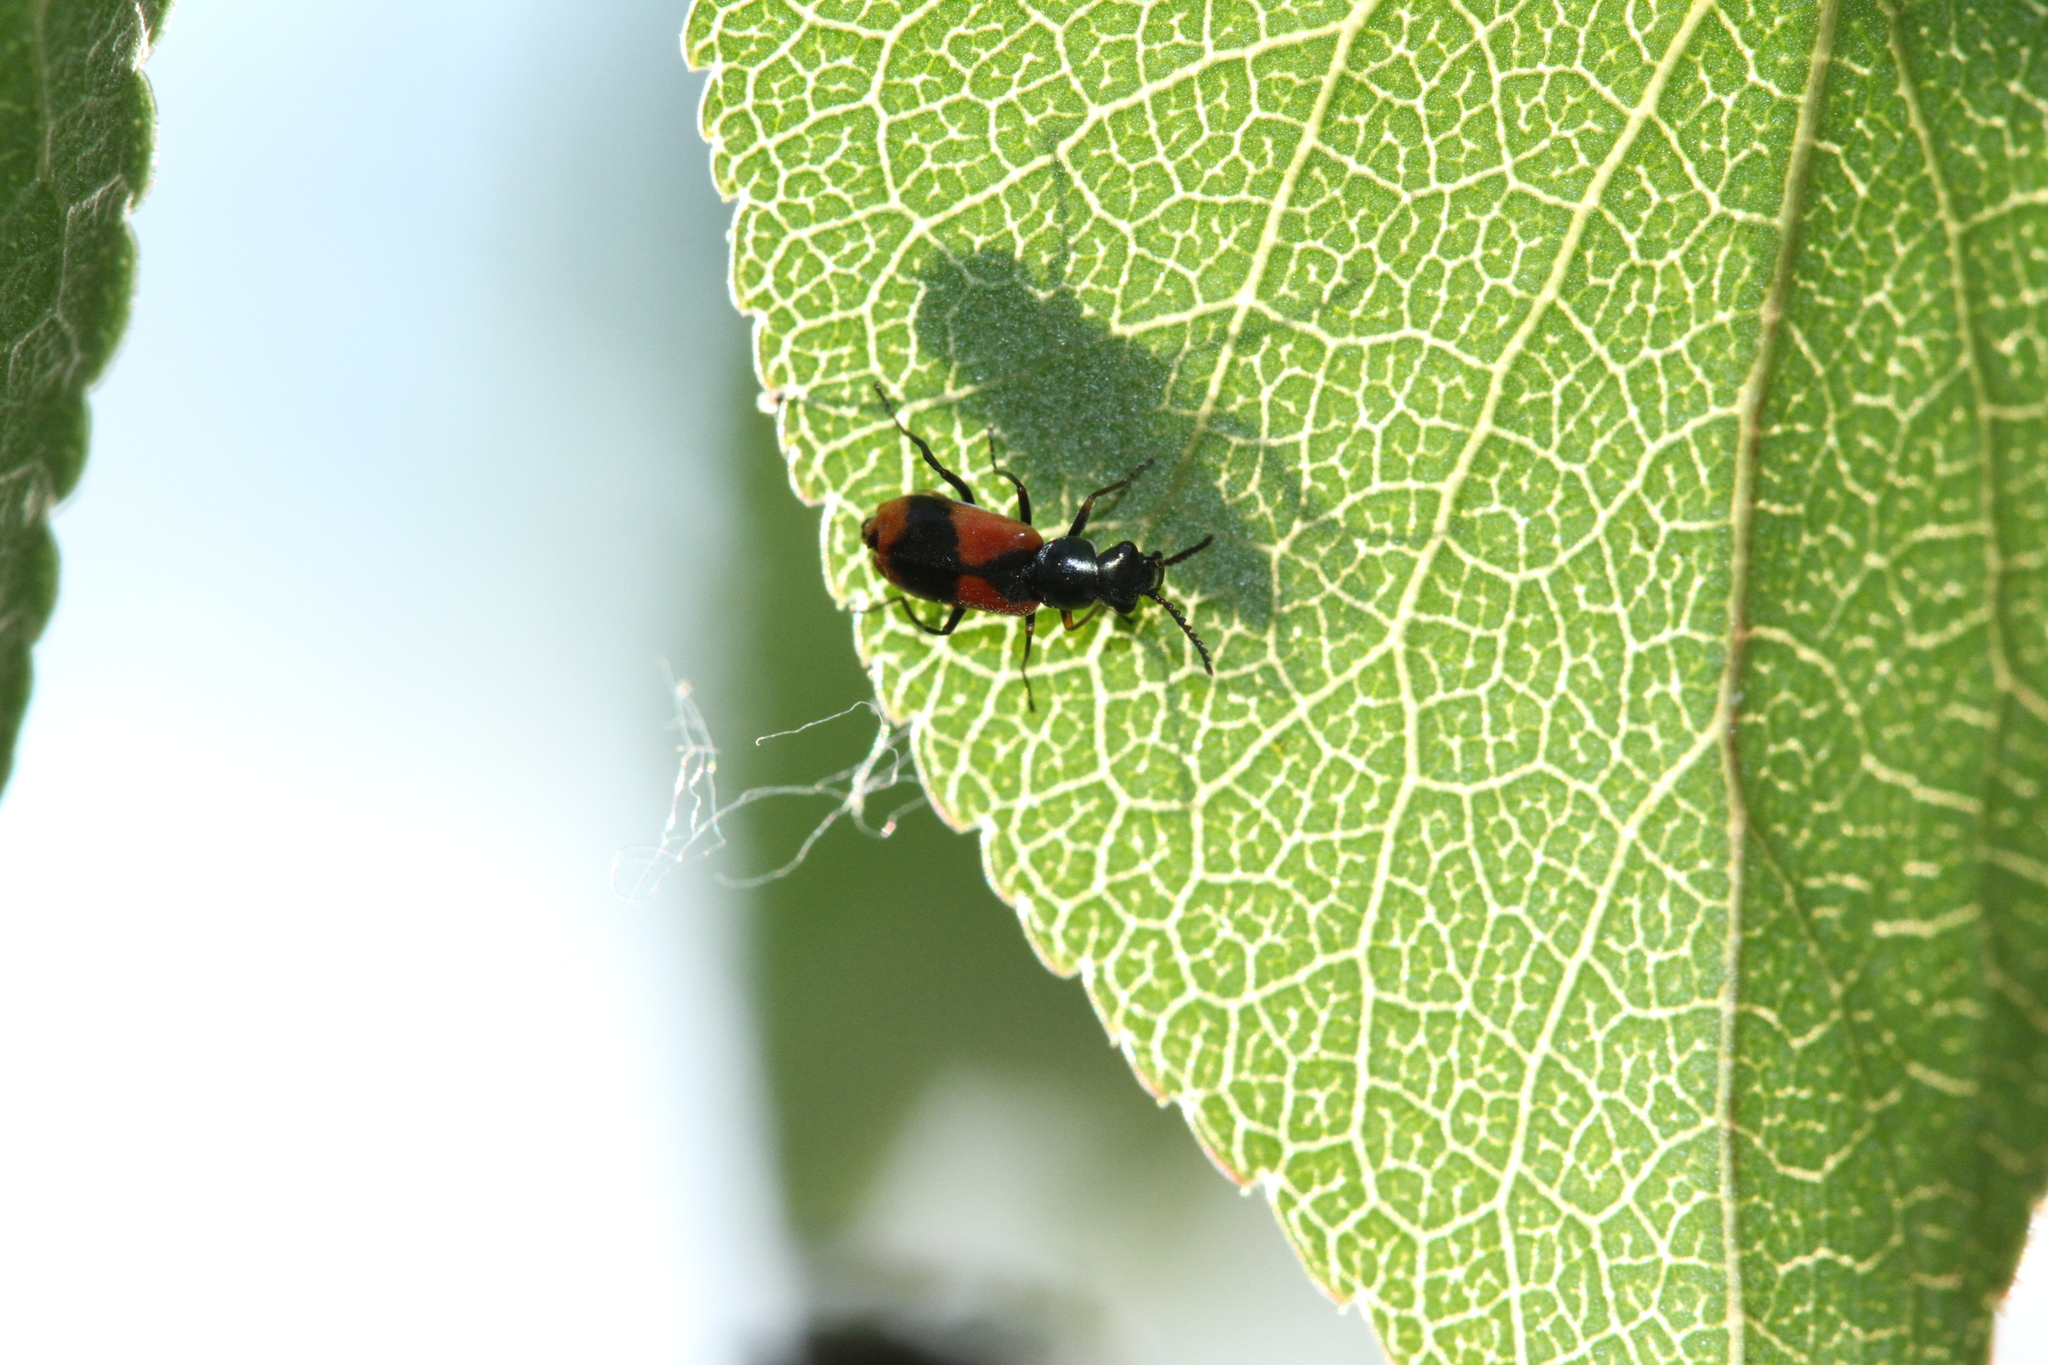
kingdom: Animalia
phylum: Arthropoda
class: Insecta
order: Coleoptera
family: Melyridae
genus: Anthocomus
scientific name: Anthocomus equestris
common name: Black-banded soft-winged flower beetle
